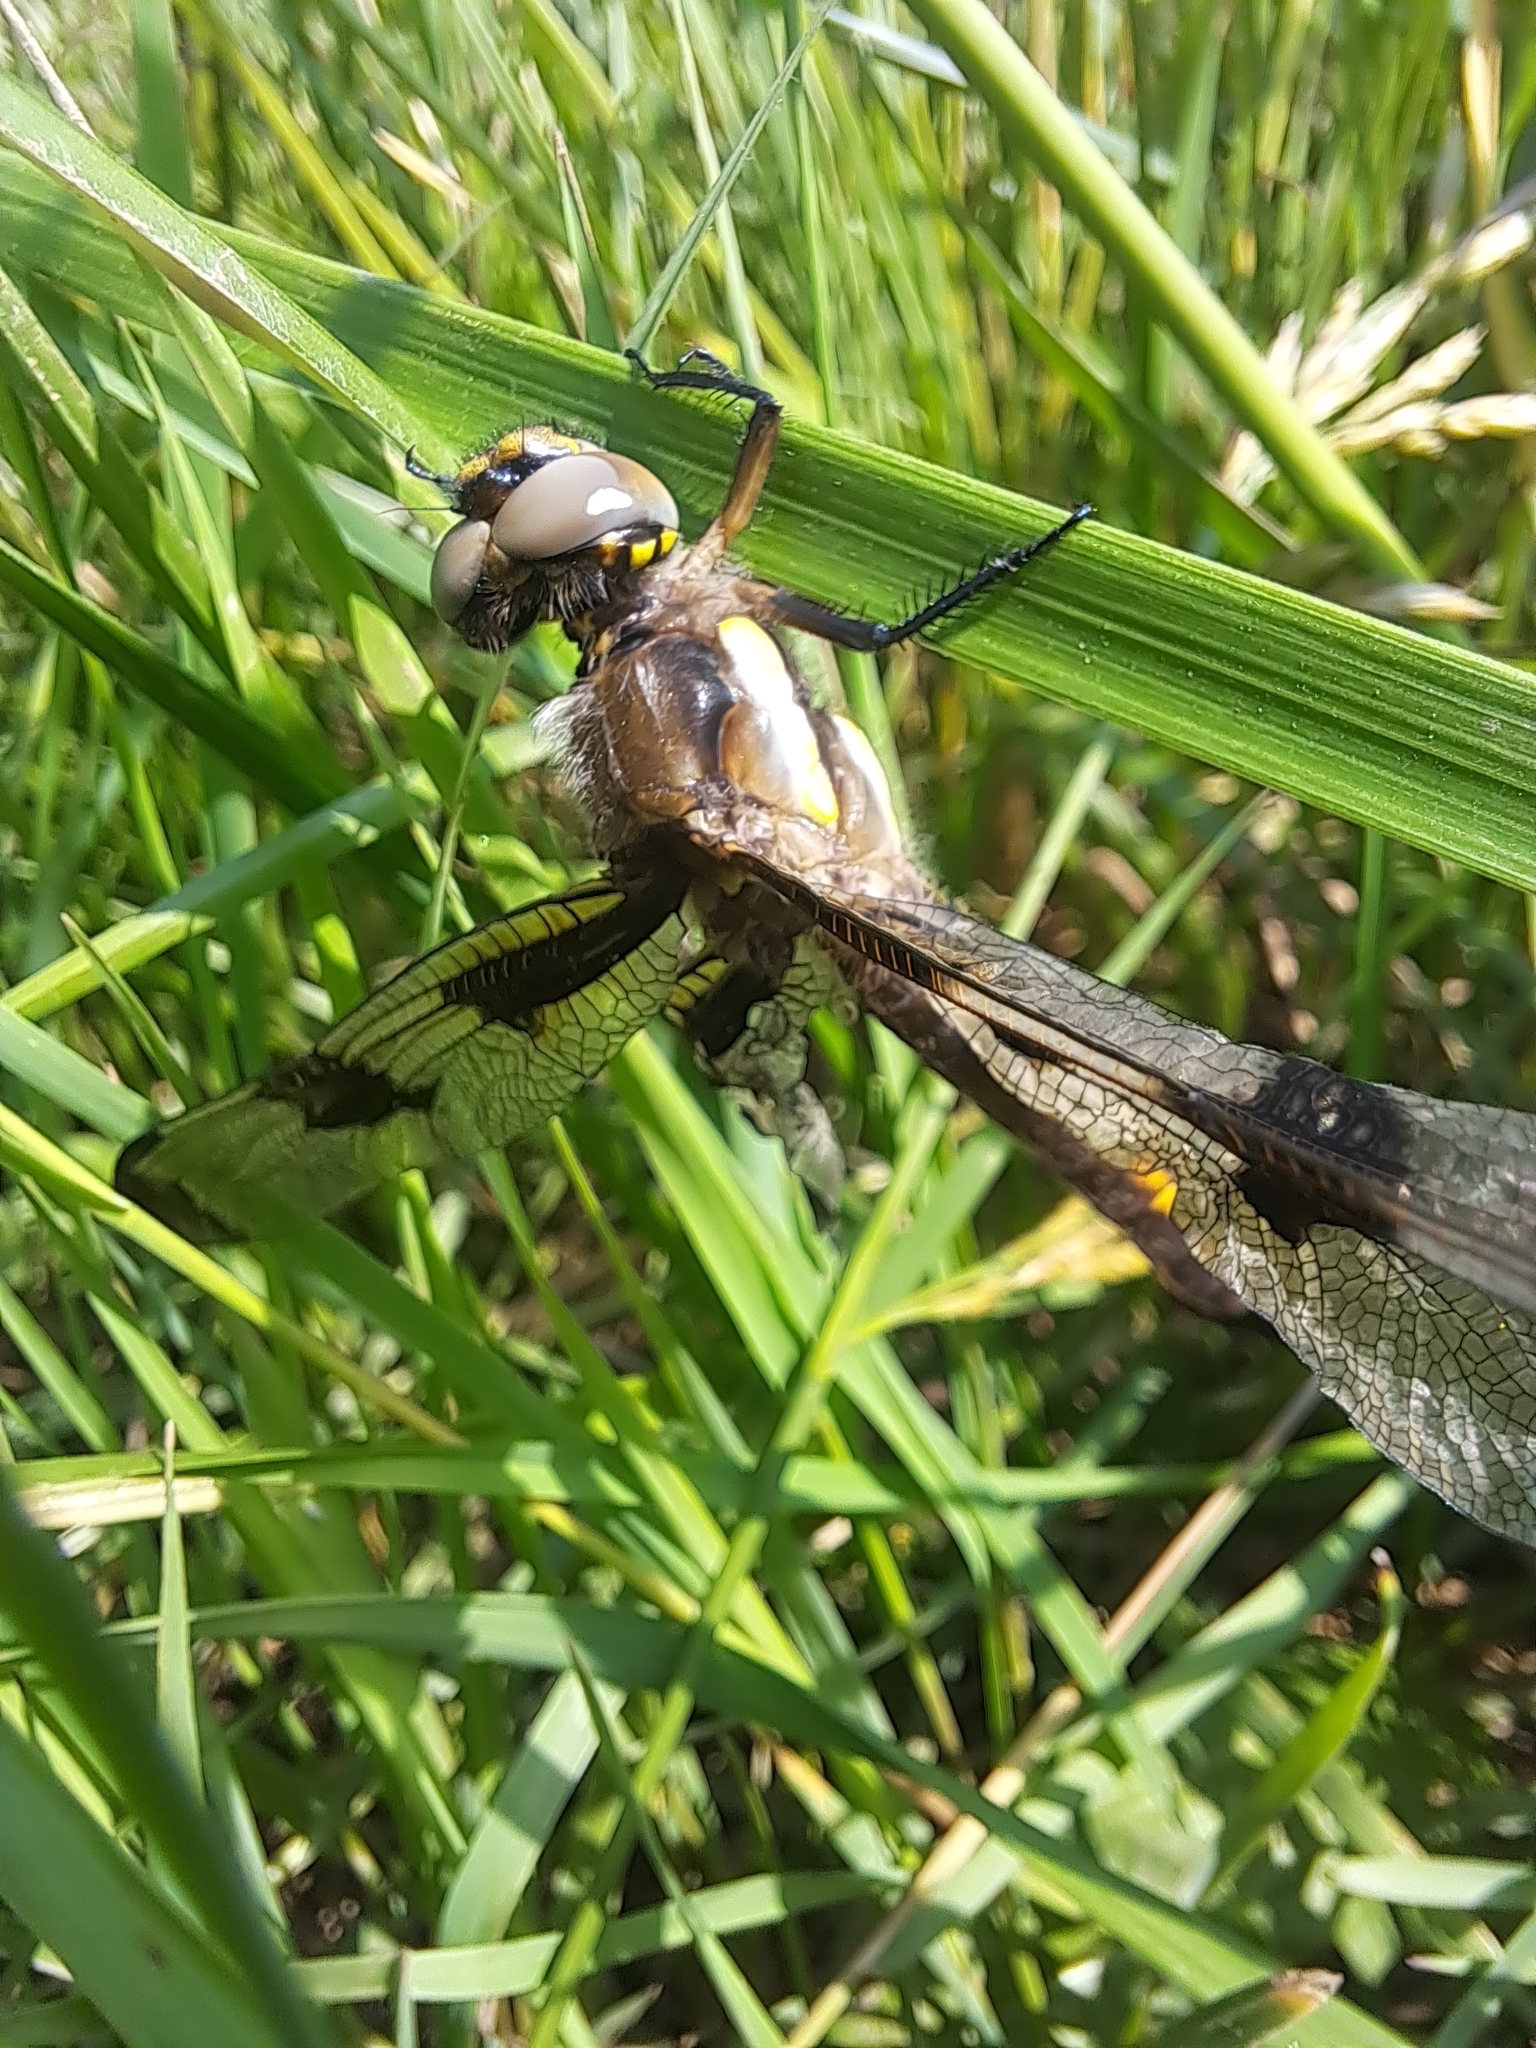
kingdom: Animalia
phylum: Arthropoda
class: Insecta
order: Odonata
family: Libellulidae
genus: Libellula
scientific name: Libellula pulchella
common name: Twelve-spotted skimmer
